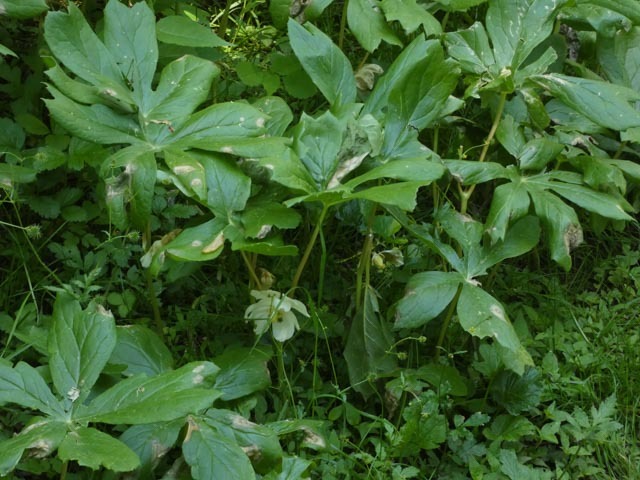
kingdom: Plantae
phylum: Tracheophyta
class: Magnoliopsida
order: Ranunculales
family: Berberidaceae
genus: Podophyllum
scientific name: Podophyllum peltatum
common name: Wild mandrake
